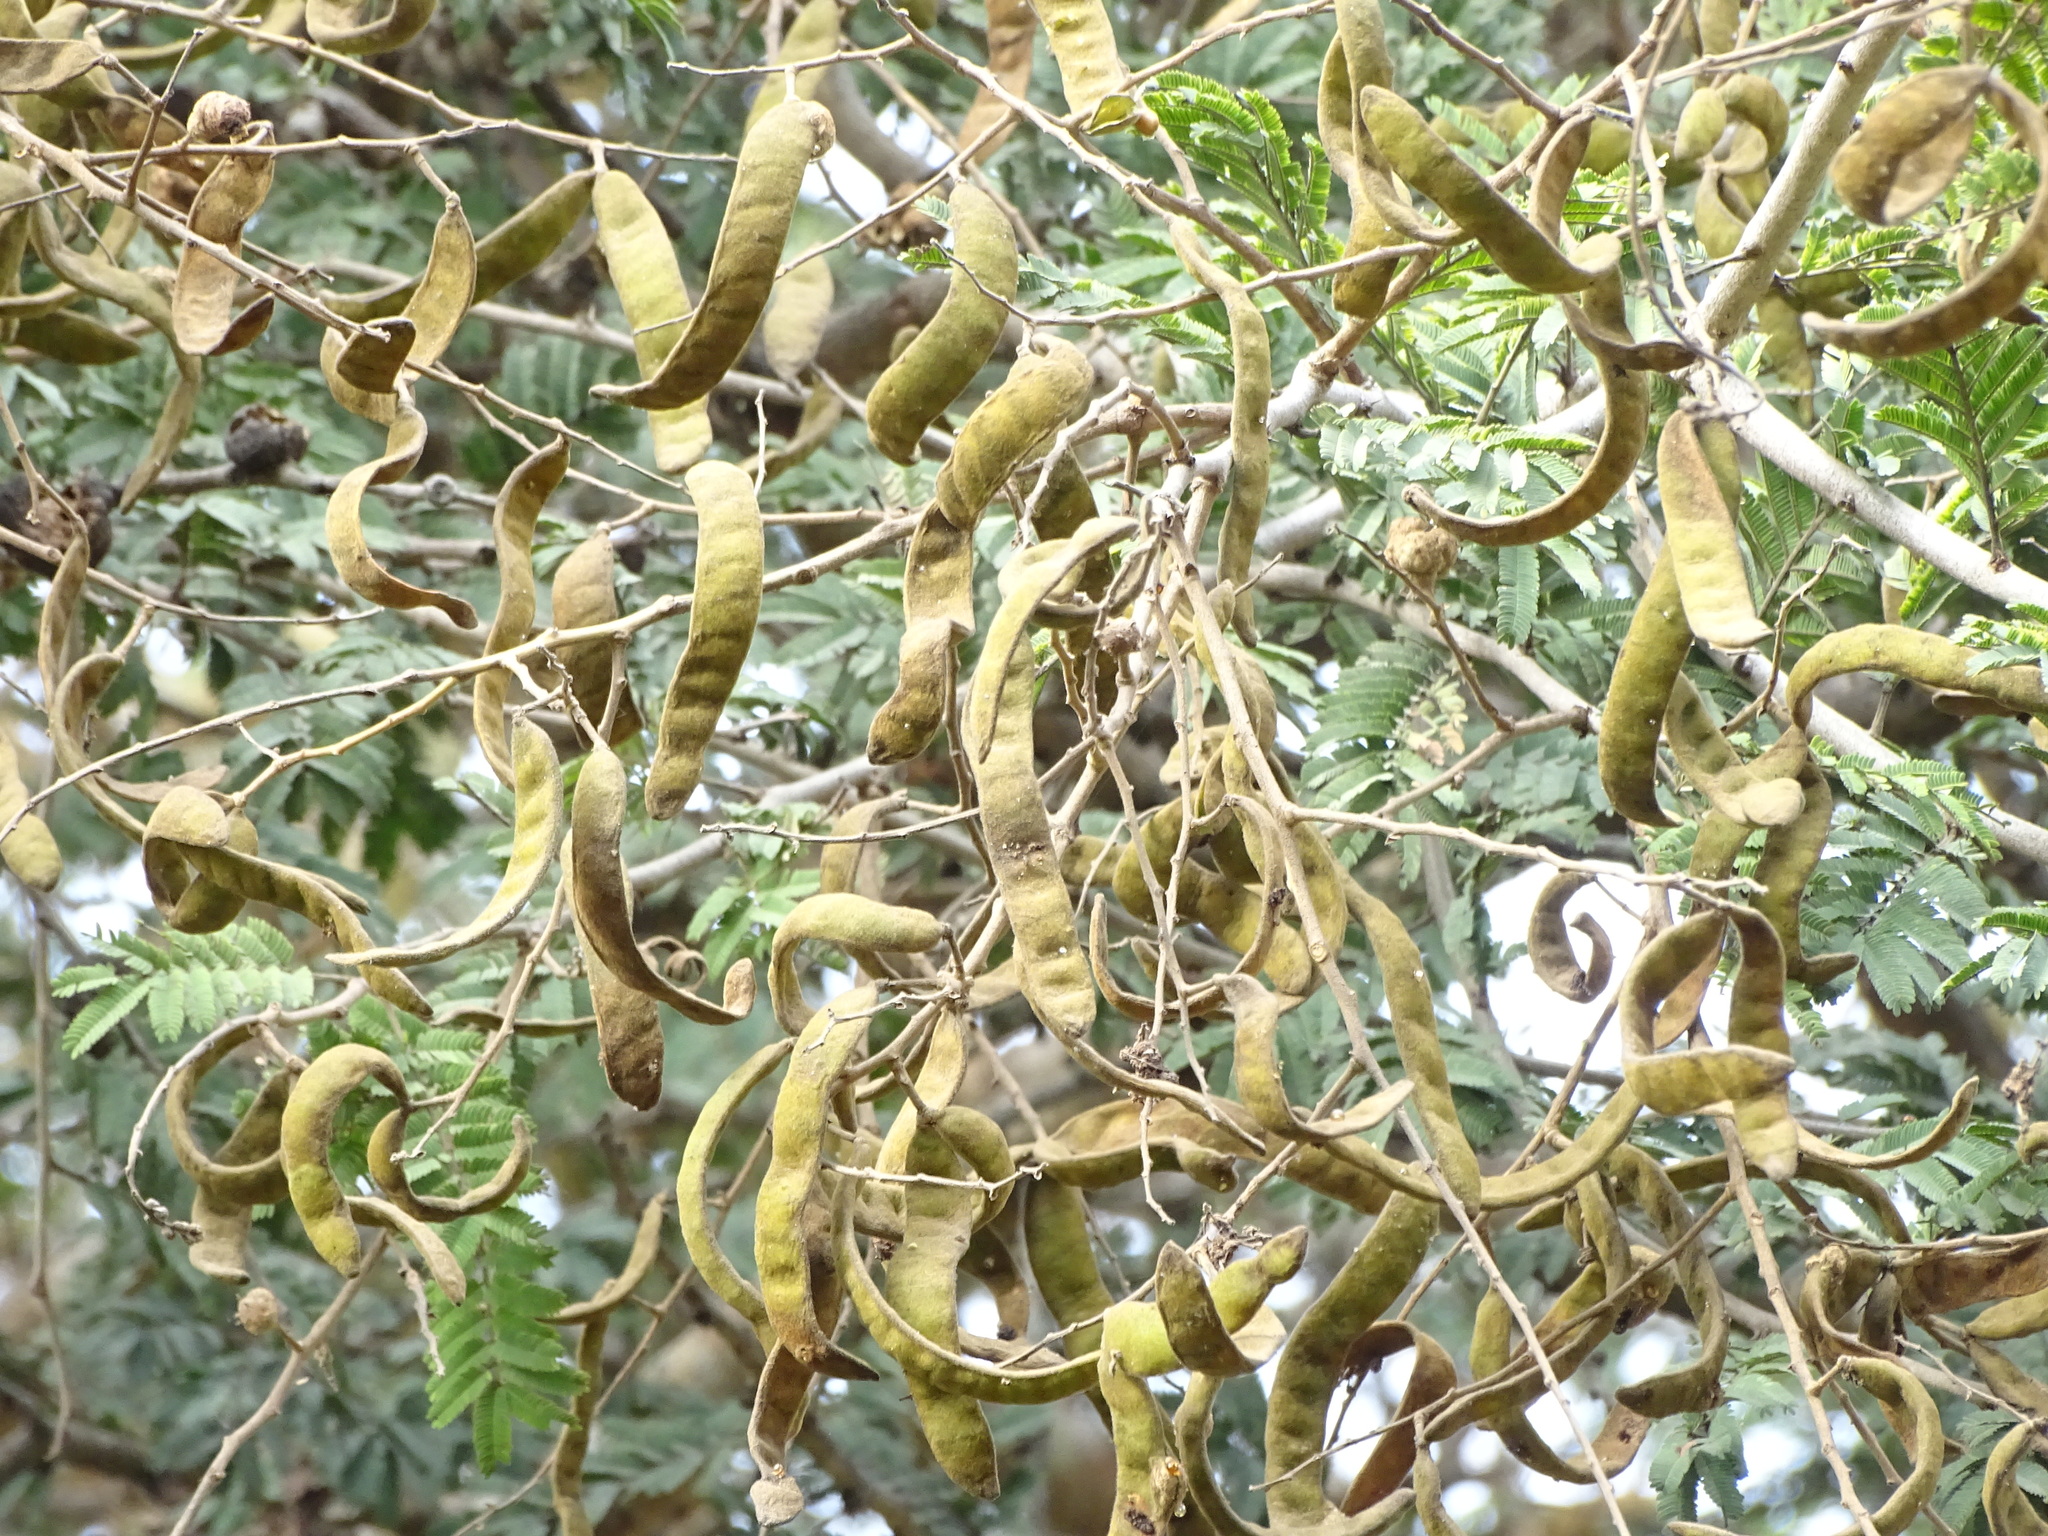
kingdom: Plantae
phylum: Tracheophyta
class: Magnoliopsida
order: Fabales
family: Fabaceae
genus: Vachellia
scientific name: Vachellia leucophloea
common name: Distiller's acacia
